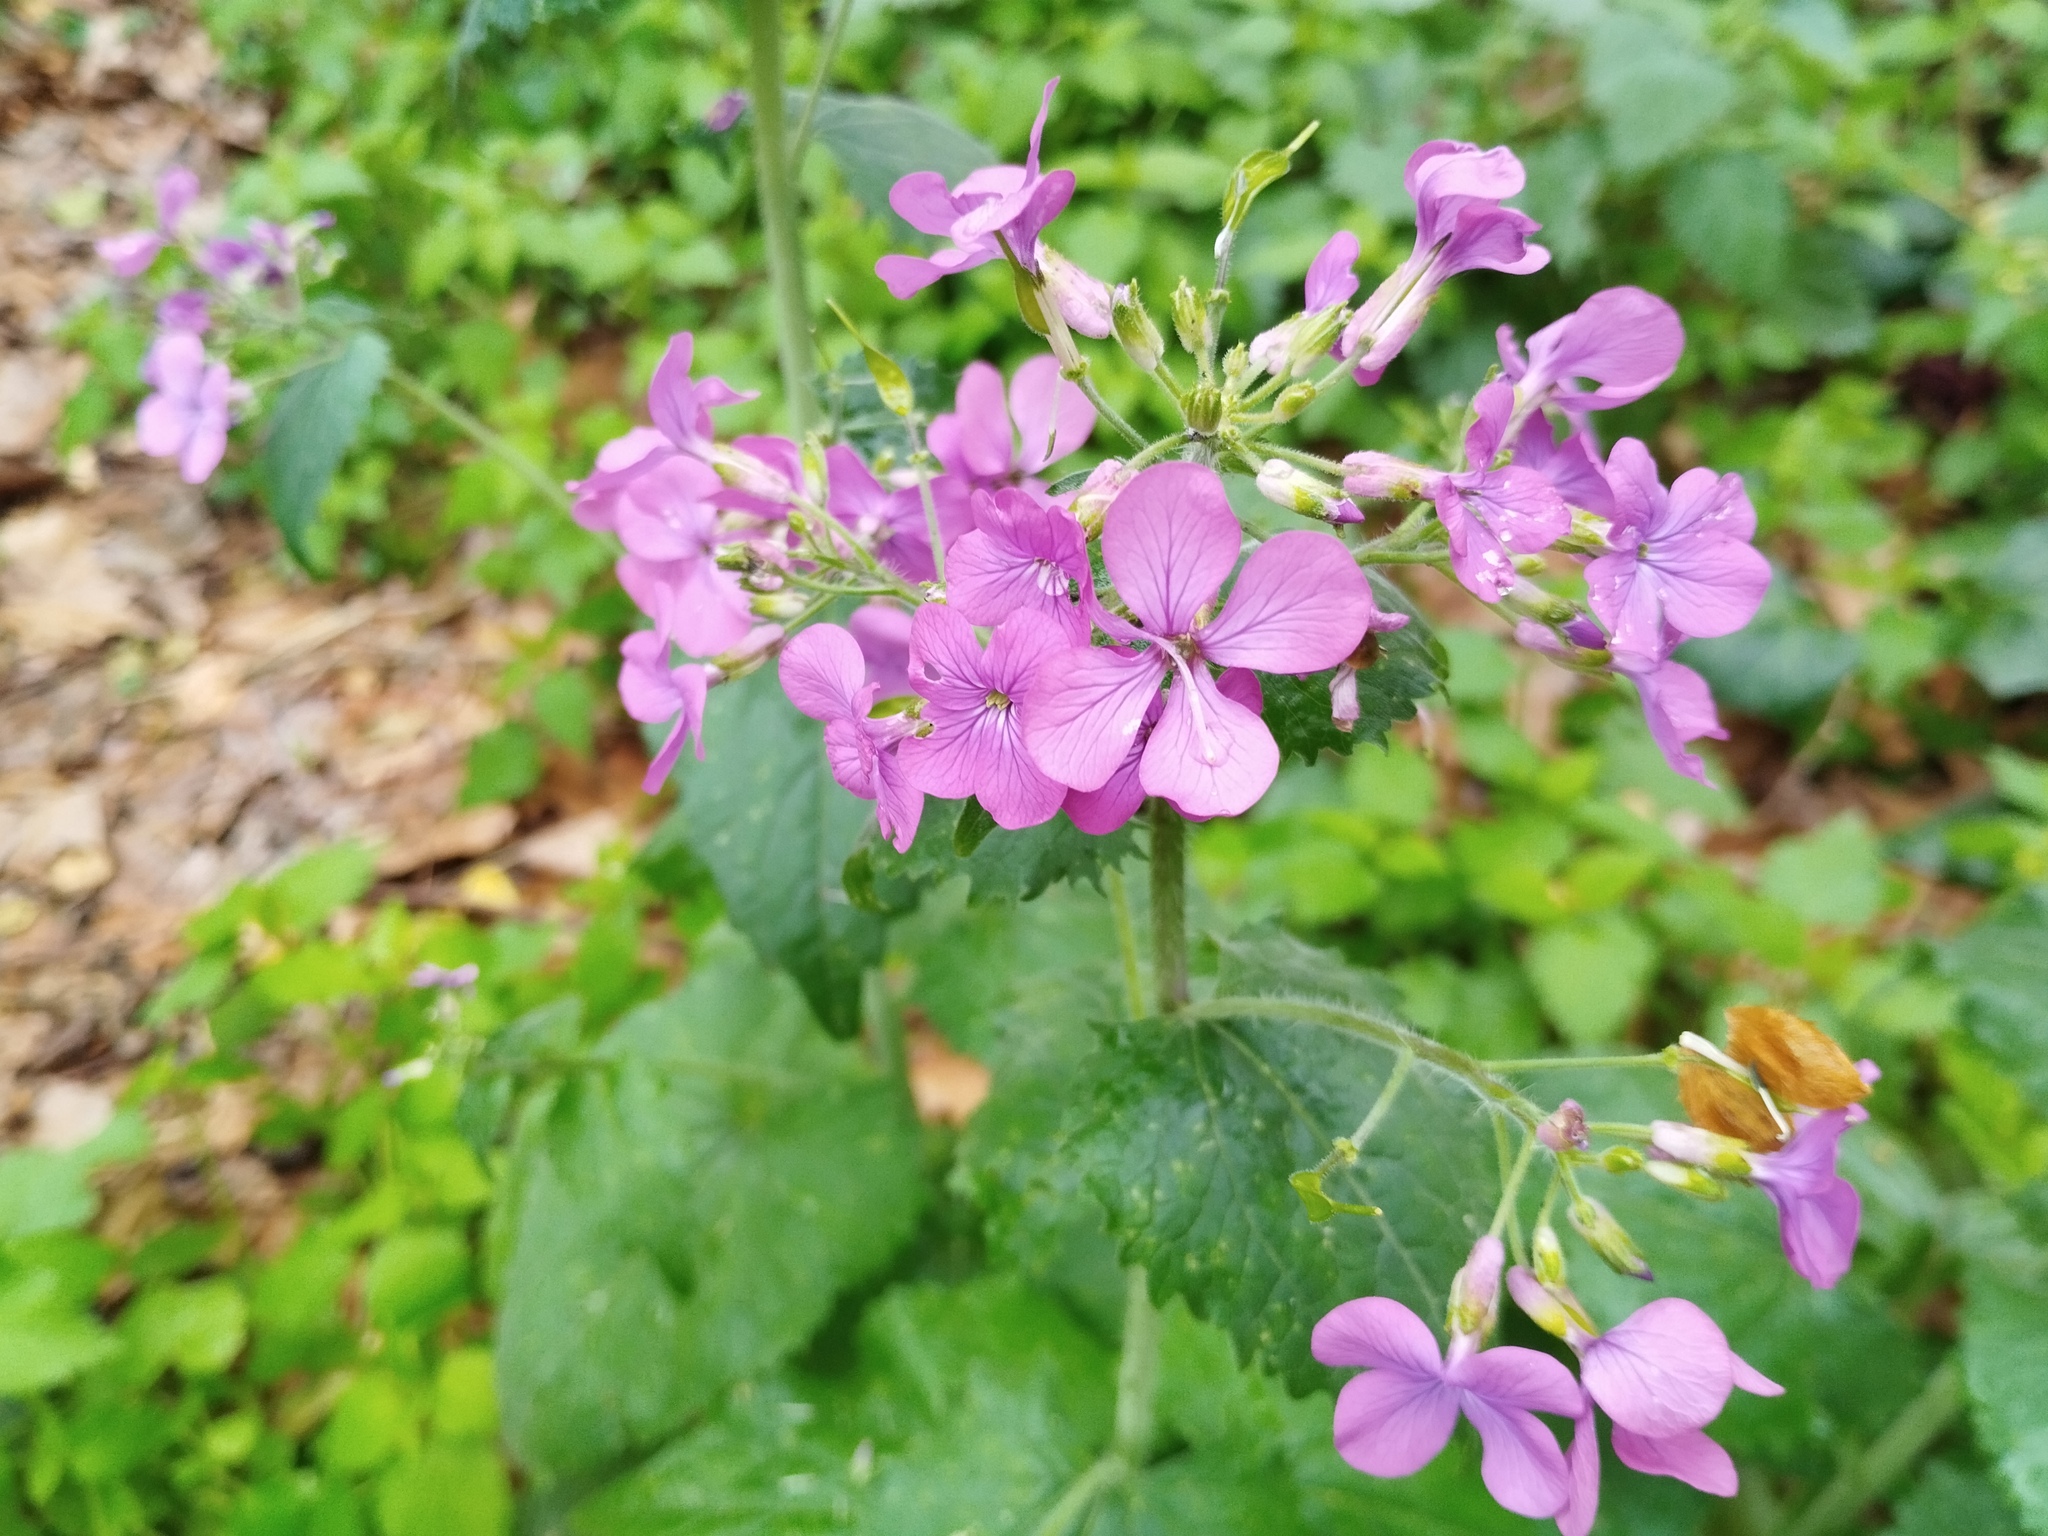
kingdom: Plantae
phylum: Tracheophyta
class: Magnoliopsida
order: Brassicales
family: Brassicaceae
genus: Lunaria
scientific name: Lunaria annua
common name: Honesty
